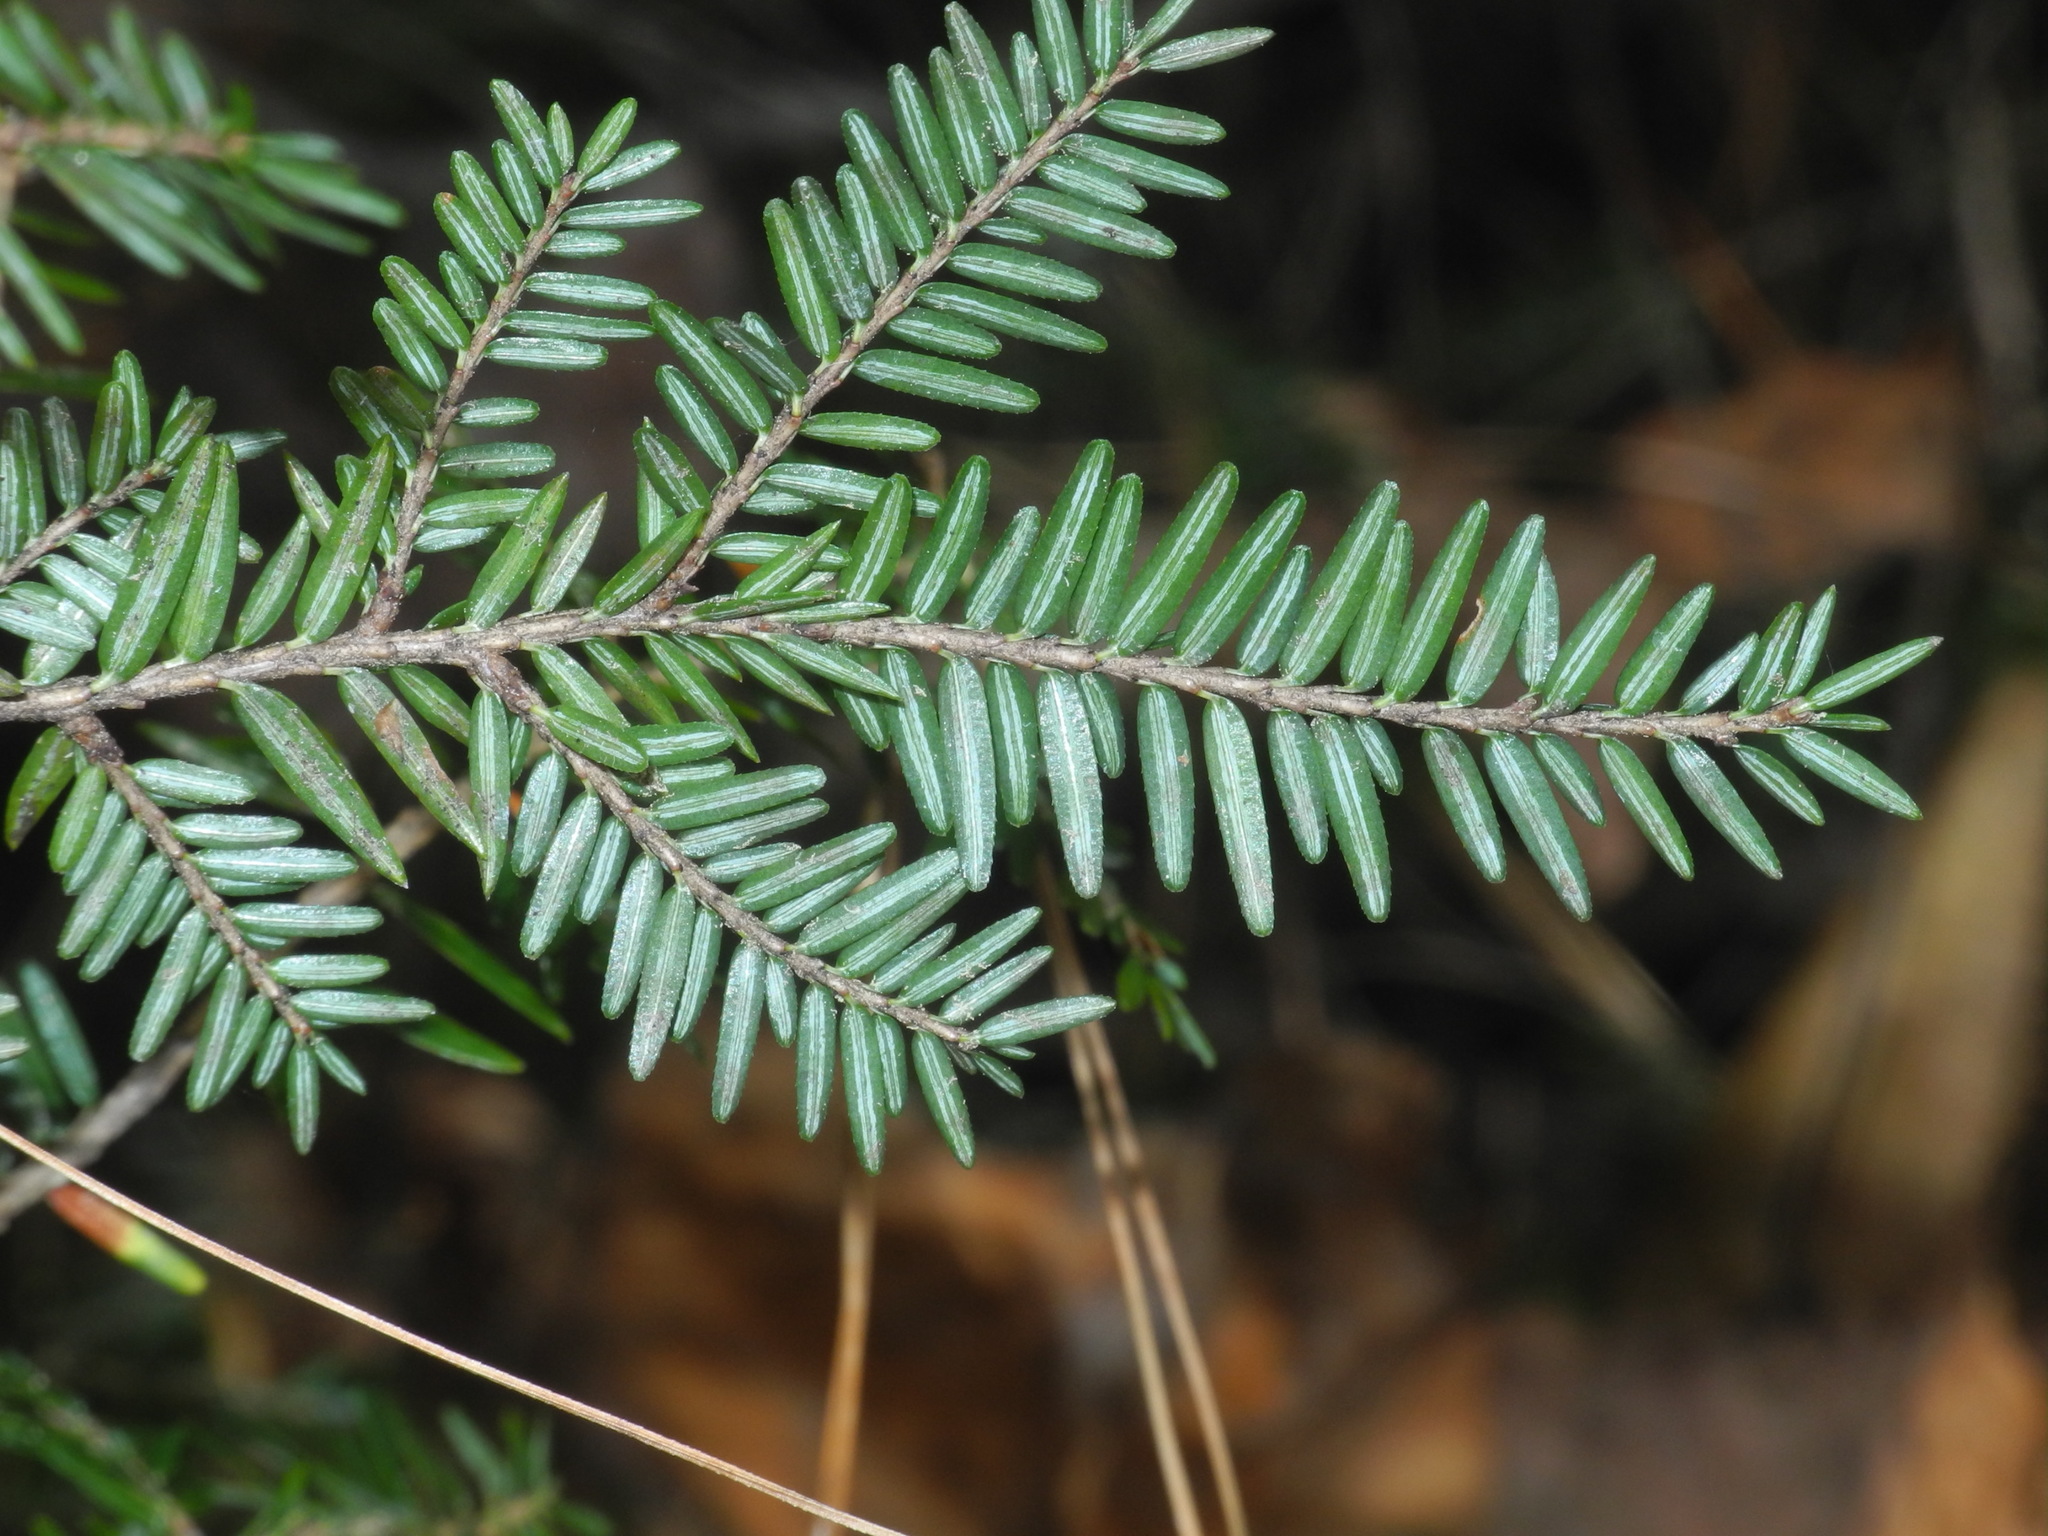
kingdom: Plantae
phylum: Tracheophyta
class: Pinopsida
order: Pinales
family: Pinaceae
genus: Tsuga
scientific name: Tsuga canadensis
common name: Eastern hemlock
